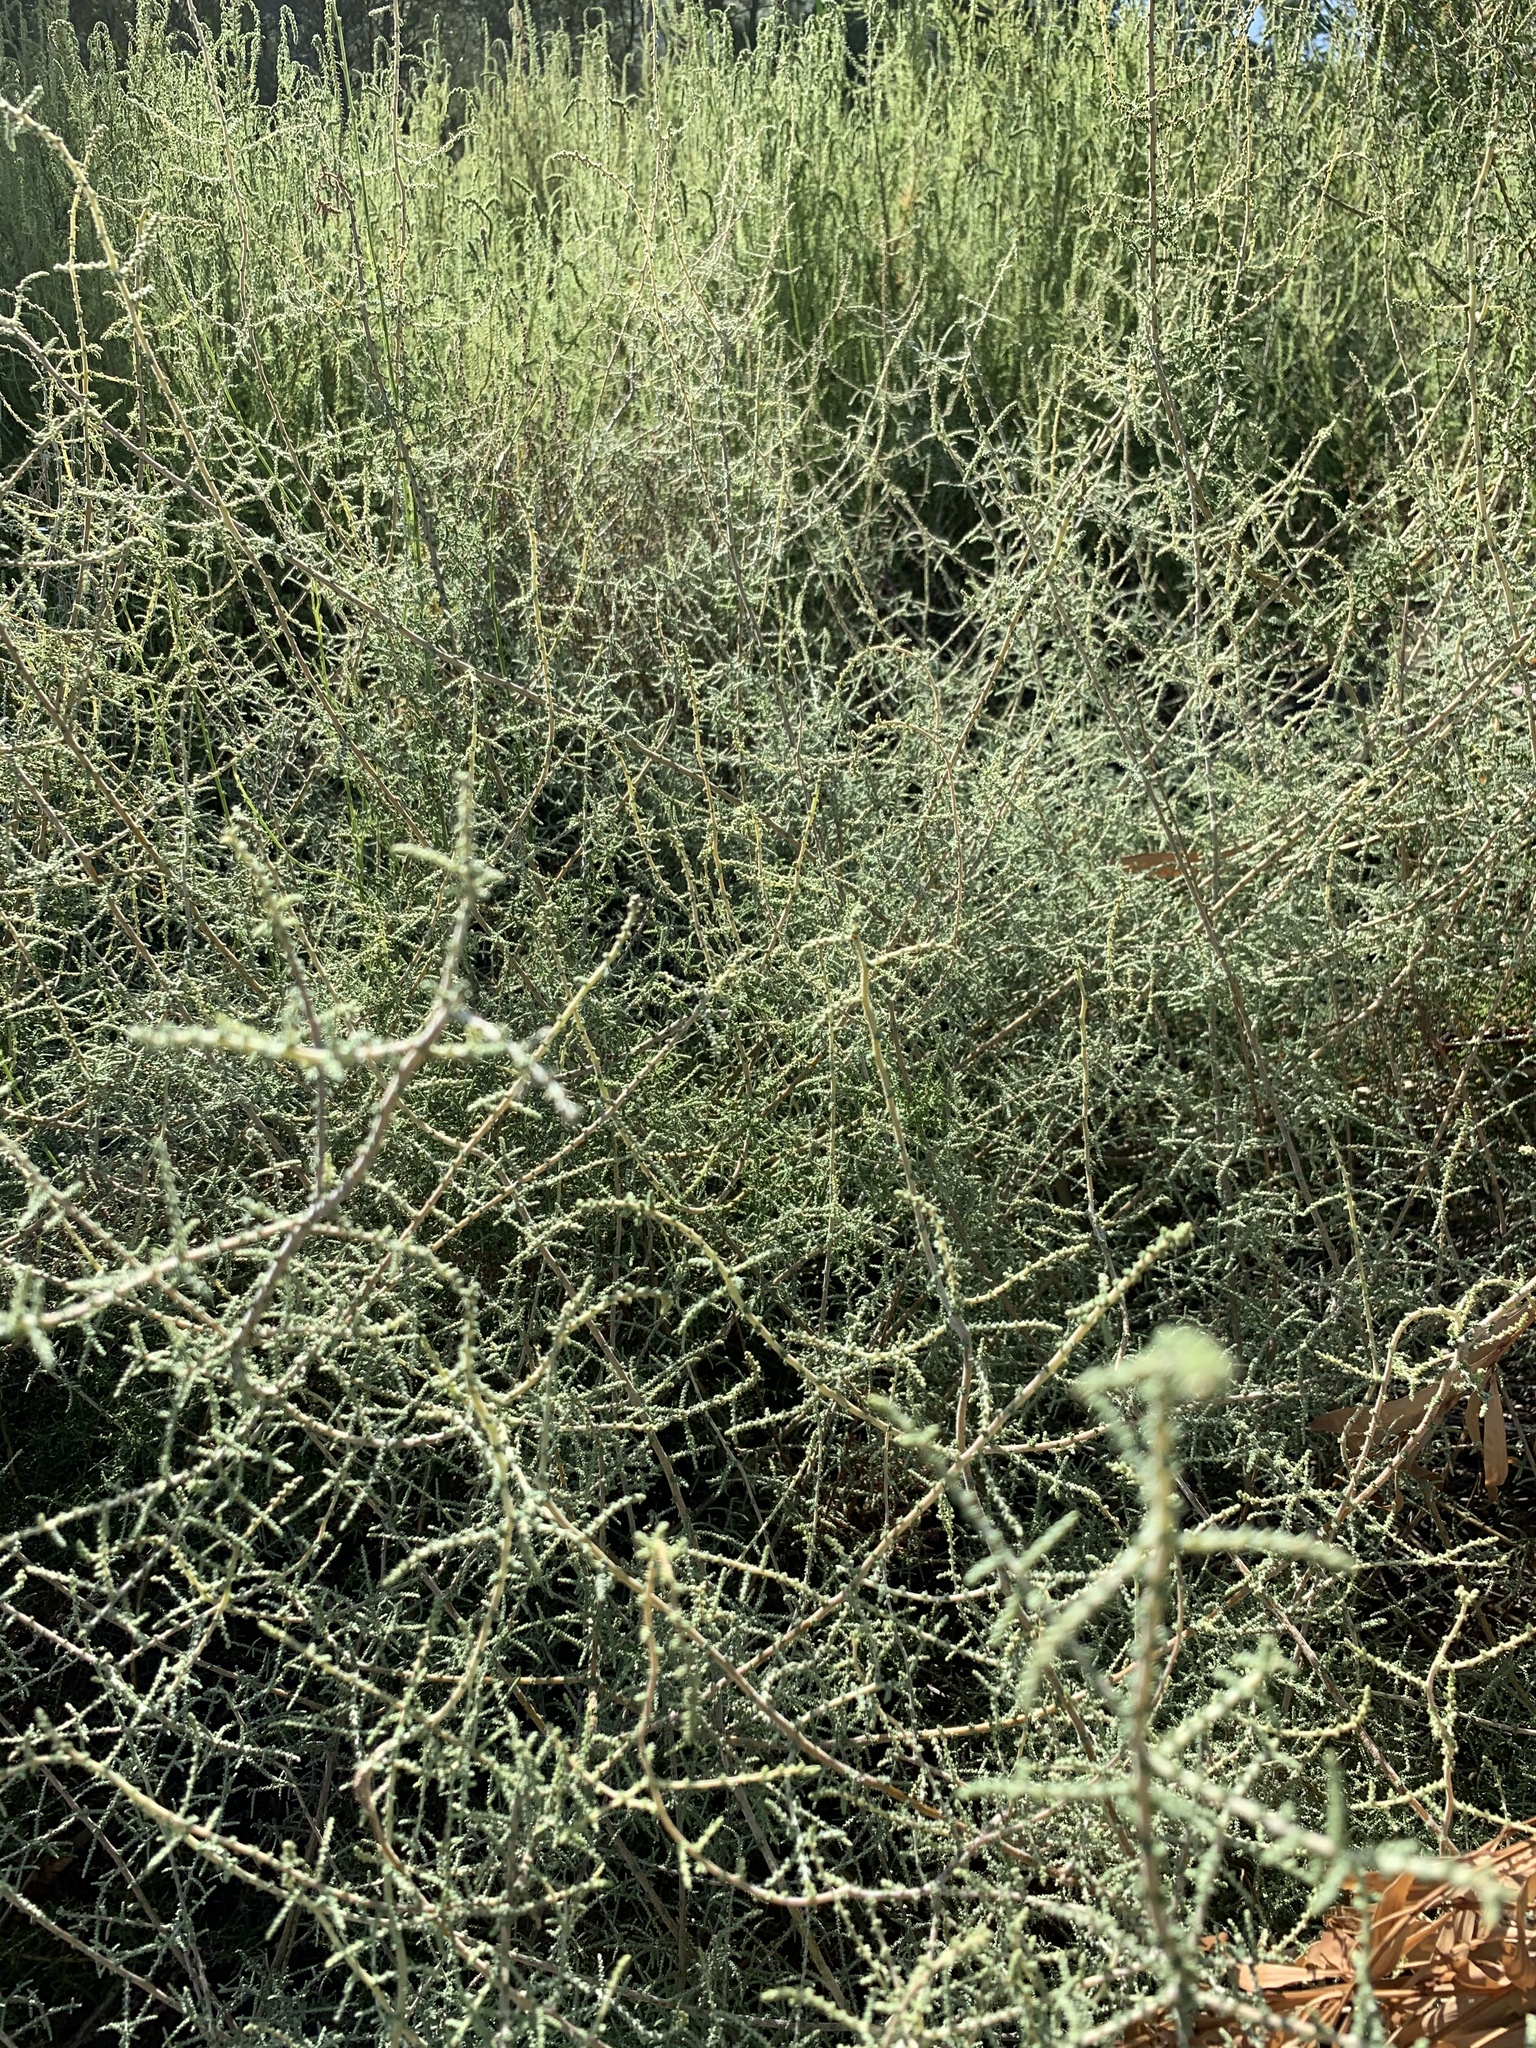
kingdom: Plantae
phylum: Tracheophyta
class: Magnoliopsida
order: Asterales
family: Asteraceae
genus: Seriphium
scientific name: Seriphium plumosum
